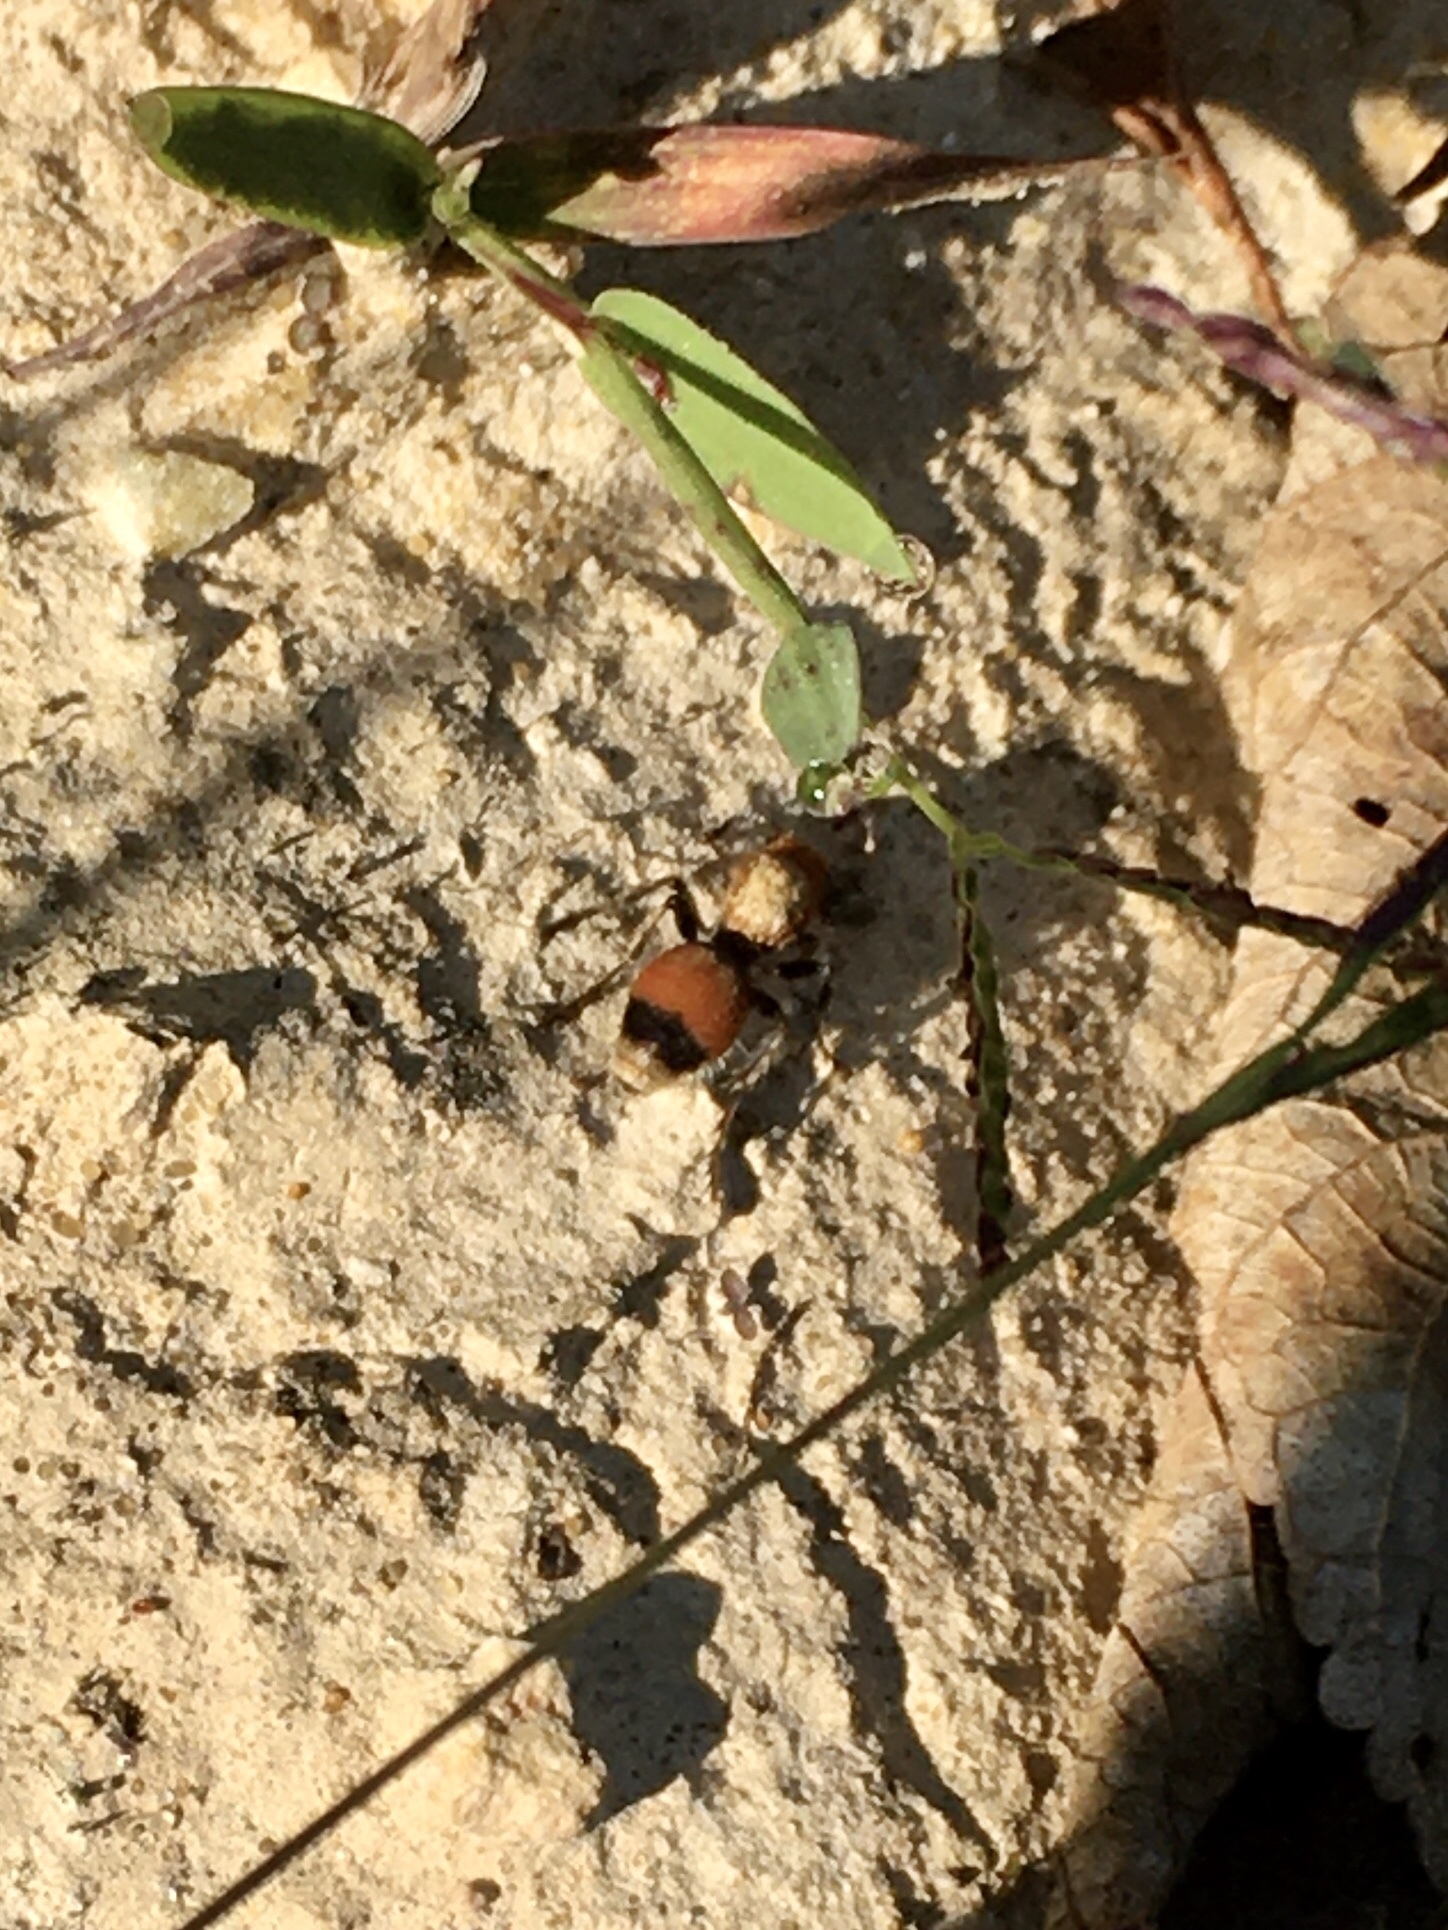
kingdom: Animalia
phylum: Arthropoda
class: Insecta
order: Hymenoptera
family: Mutillidae
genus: Dasymutilla
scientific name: Dasymutilla
